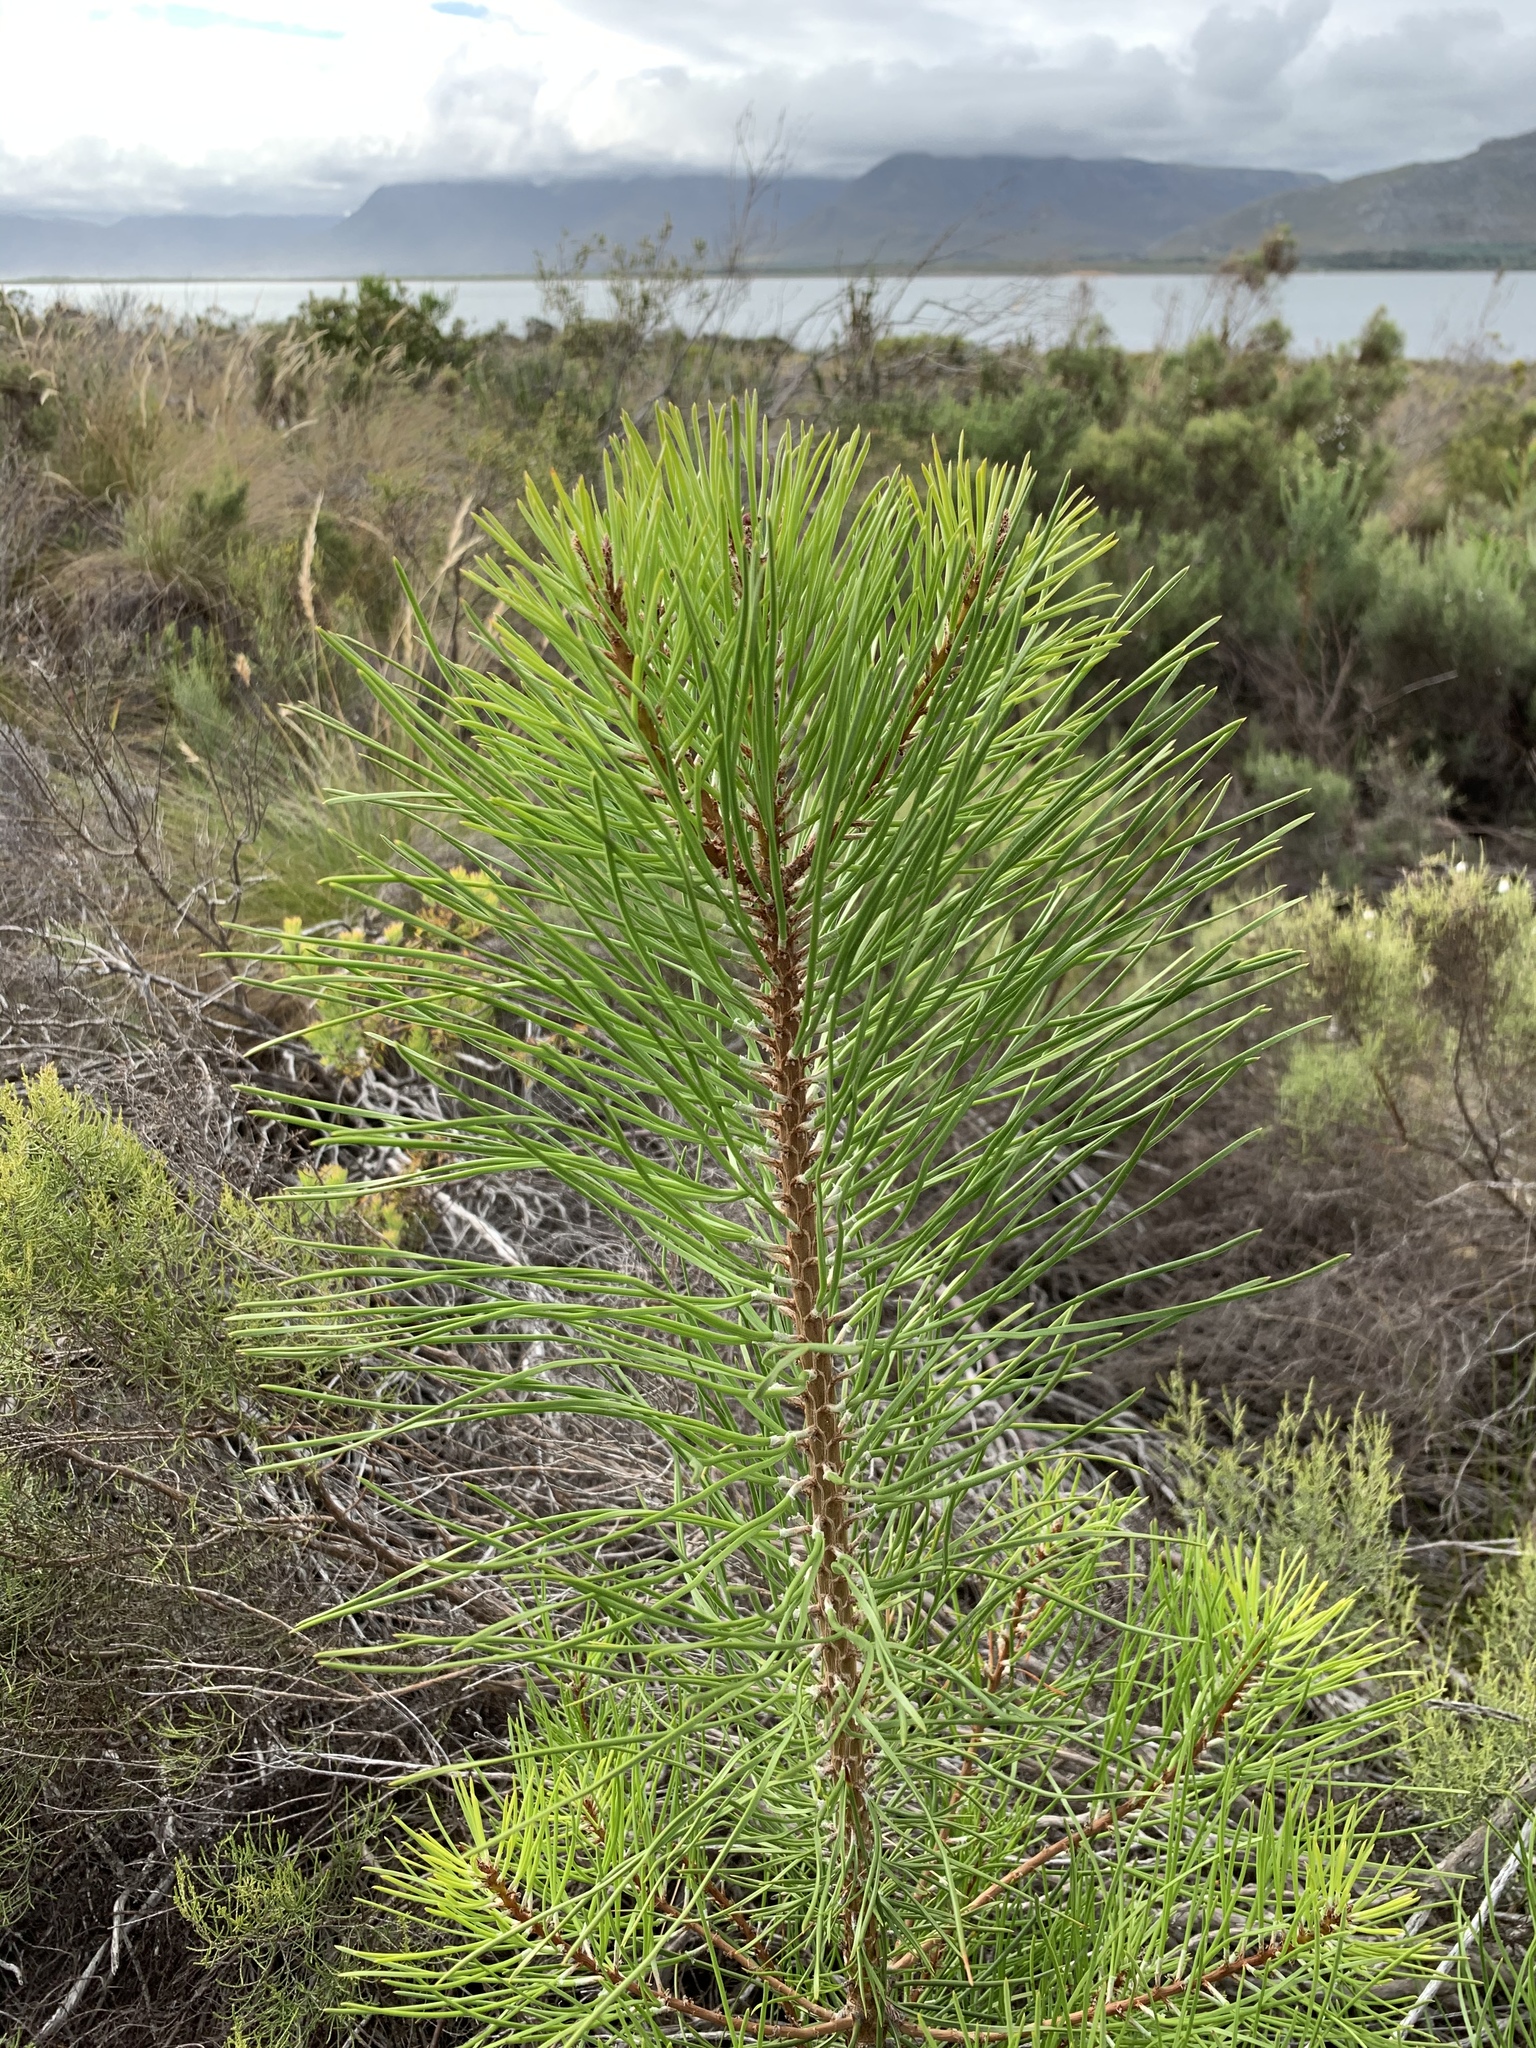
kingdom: Plantae
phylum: Tracheophyta
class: Pinopsida
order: Pinales
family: Pinaceae
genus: Pinus
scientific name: Pinus pinaster
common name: Maritime pine
